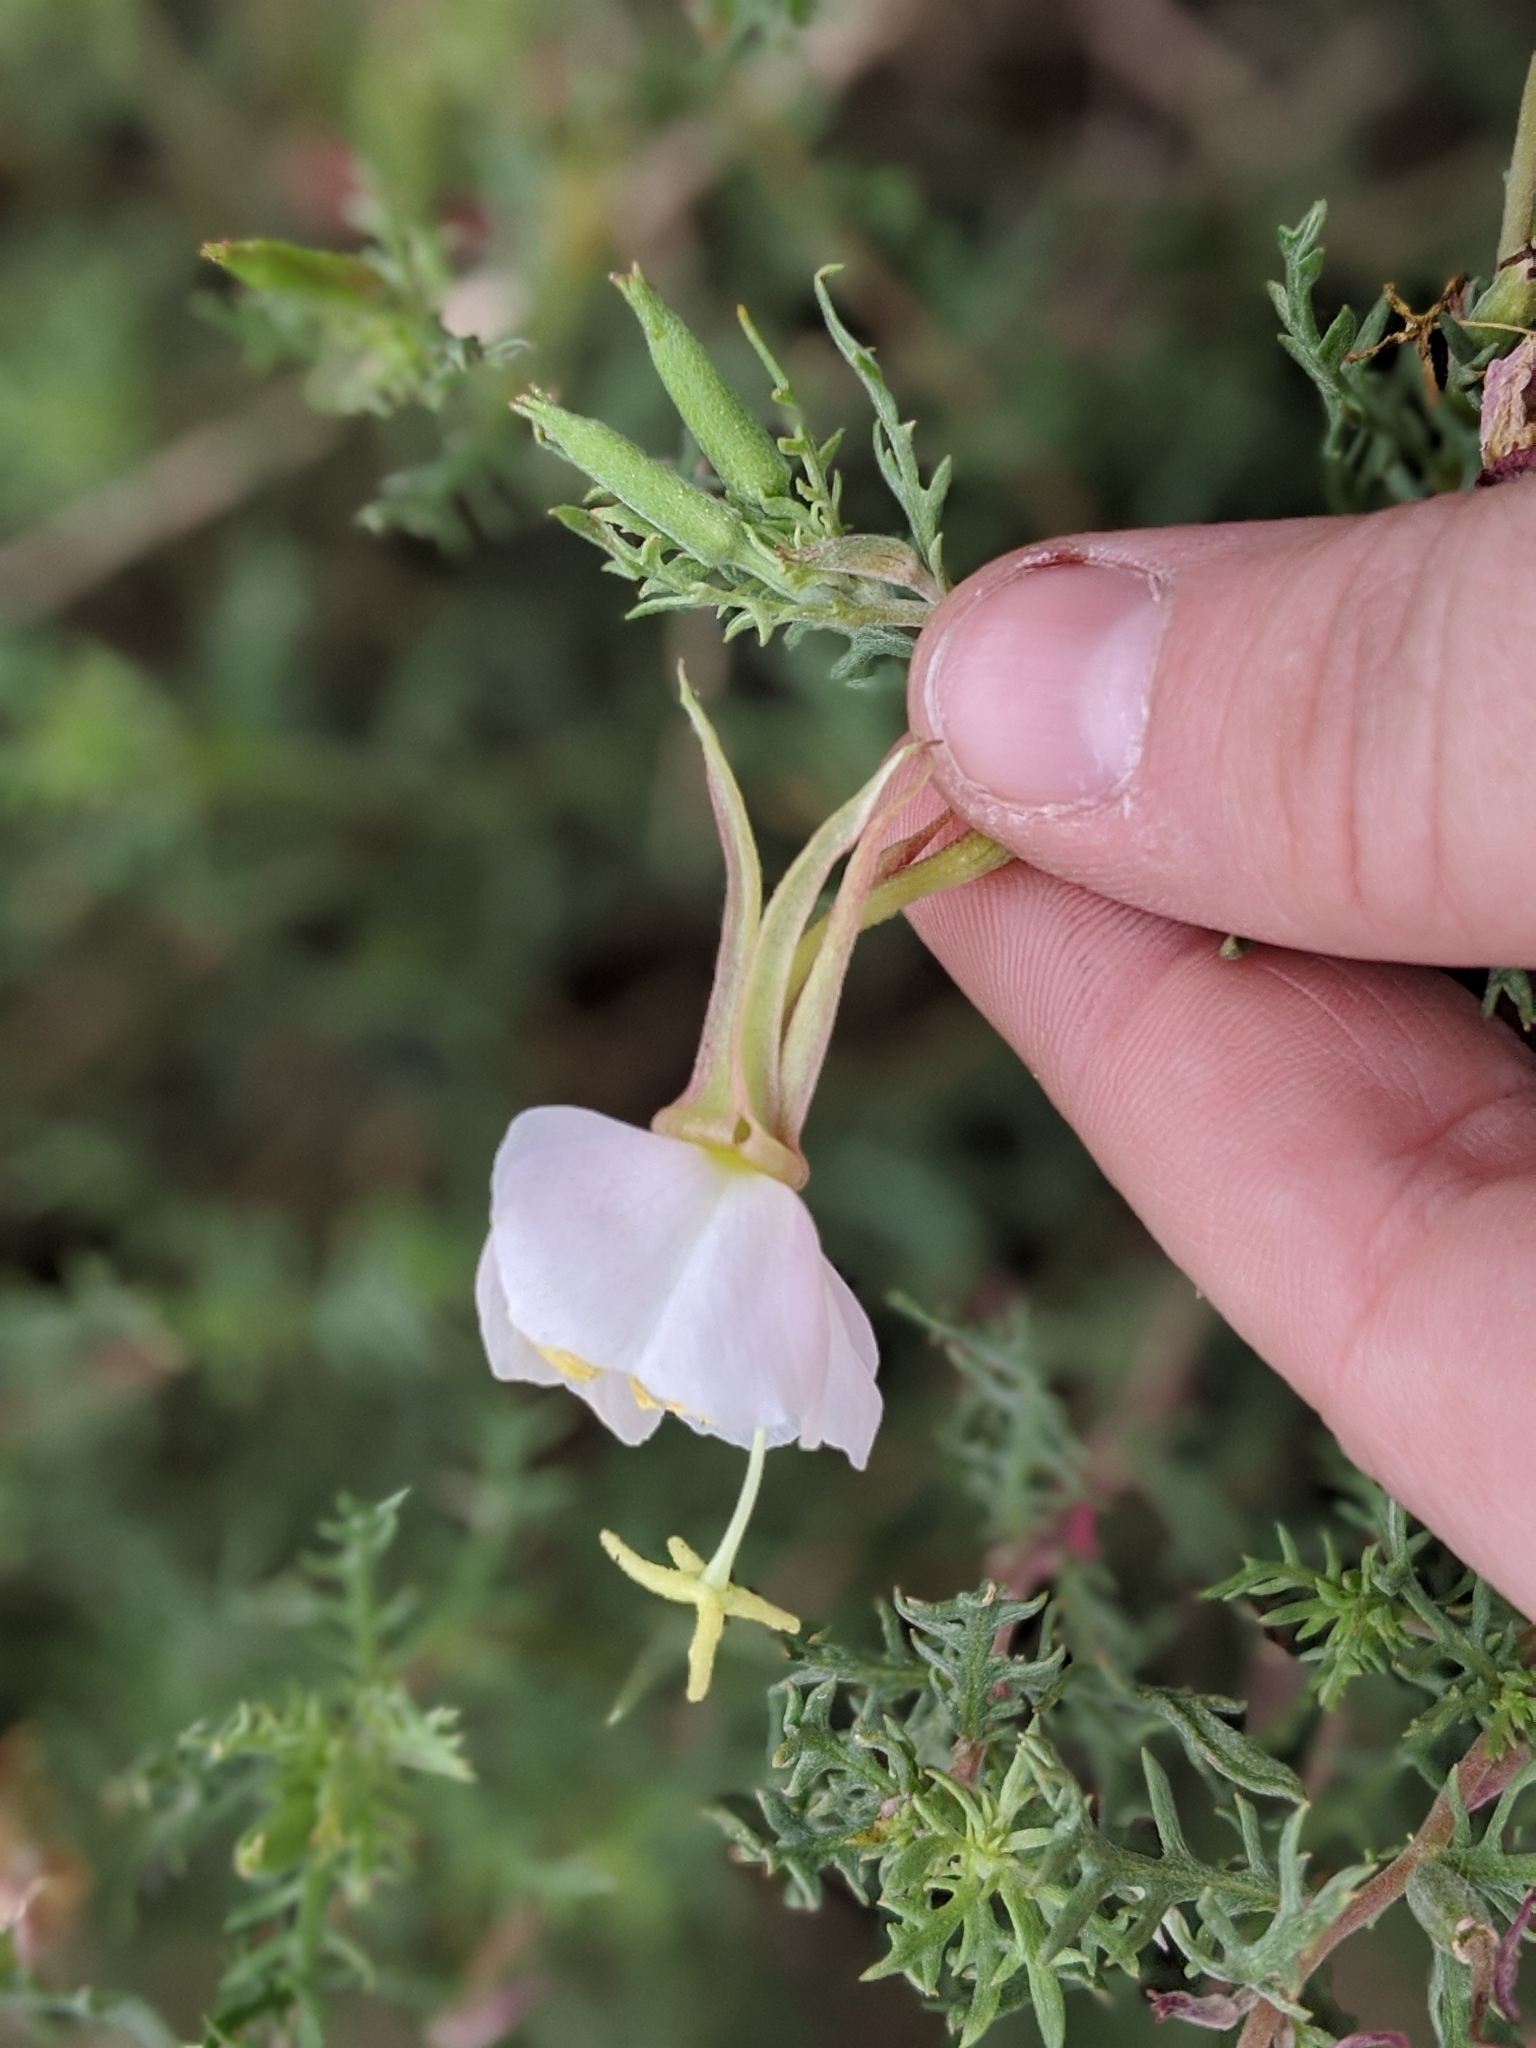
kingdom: Plantae
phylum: Tracheophyta
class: Magnoliopsida
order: Myrtales
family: Onagraceae
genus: Oenothera
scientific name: Oenothera pallida
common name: Pale evening-primrose
